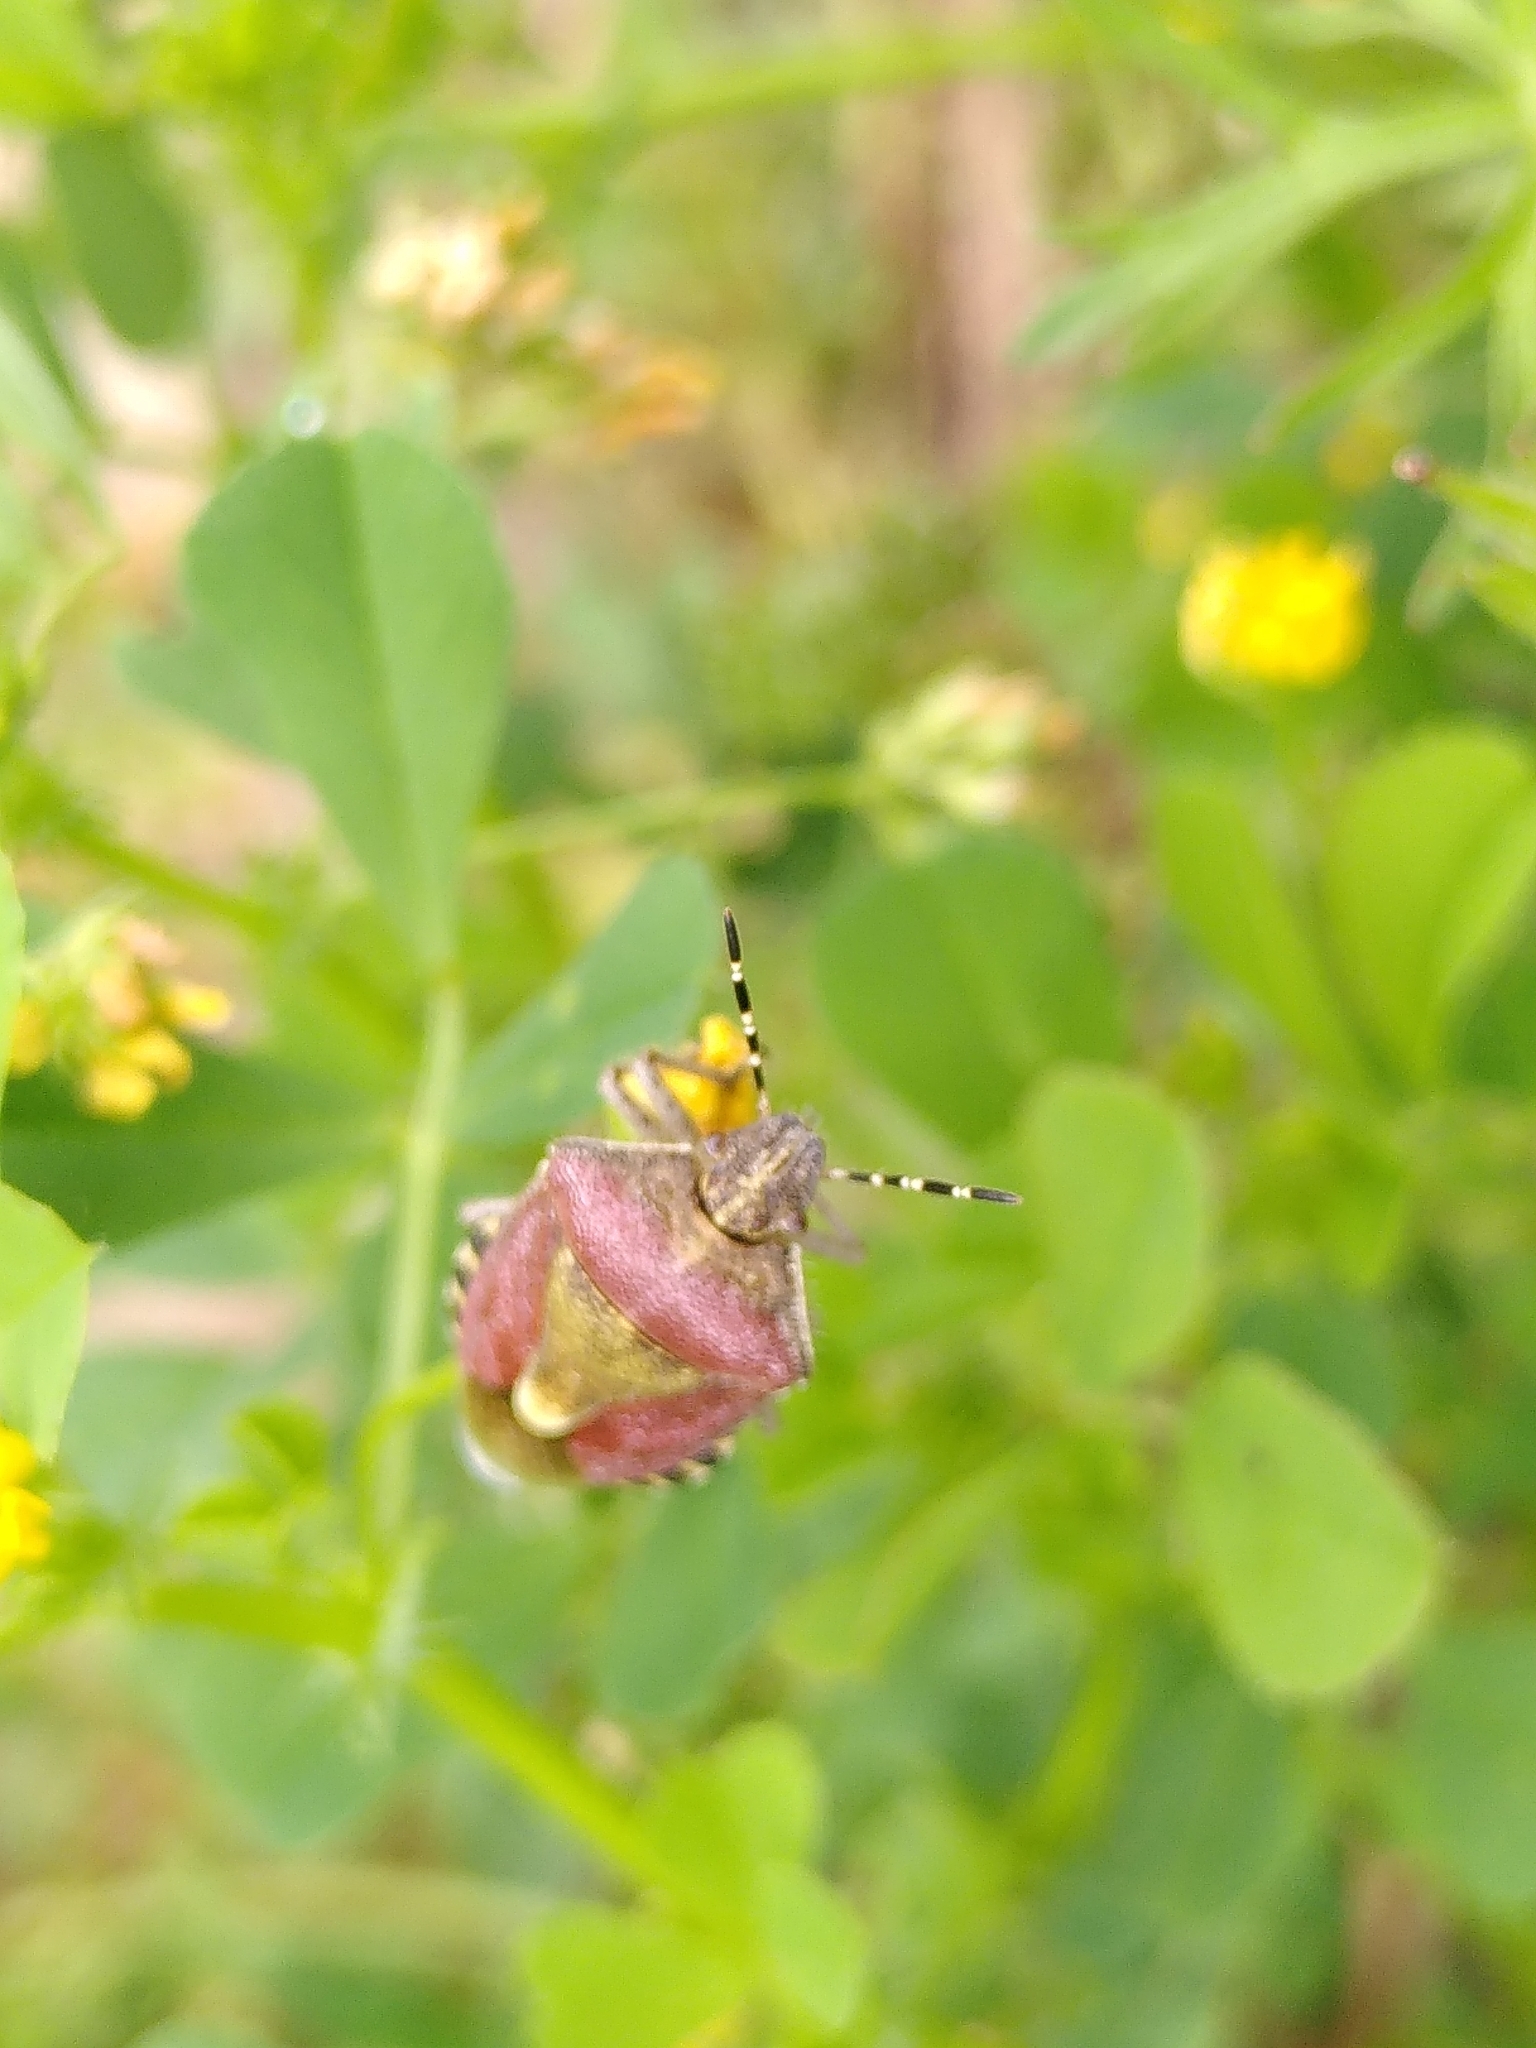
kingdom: Animalia
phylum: Arthropoda
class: Insecta
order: Hemiptera
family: Pentatomidae
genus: Dolycoris
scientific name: Dolycoris baccarum
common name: Sloe bug
